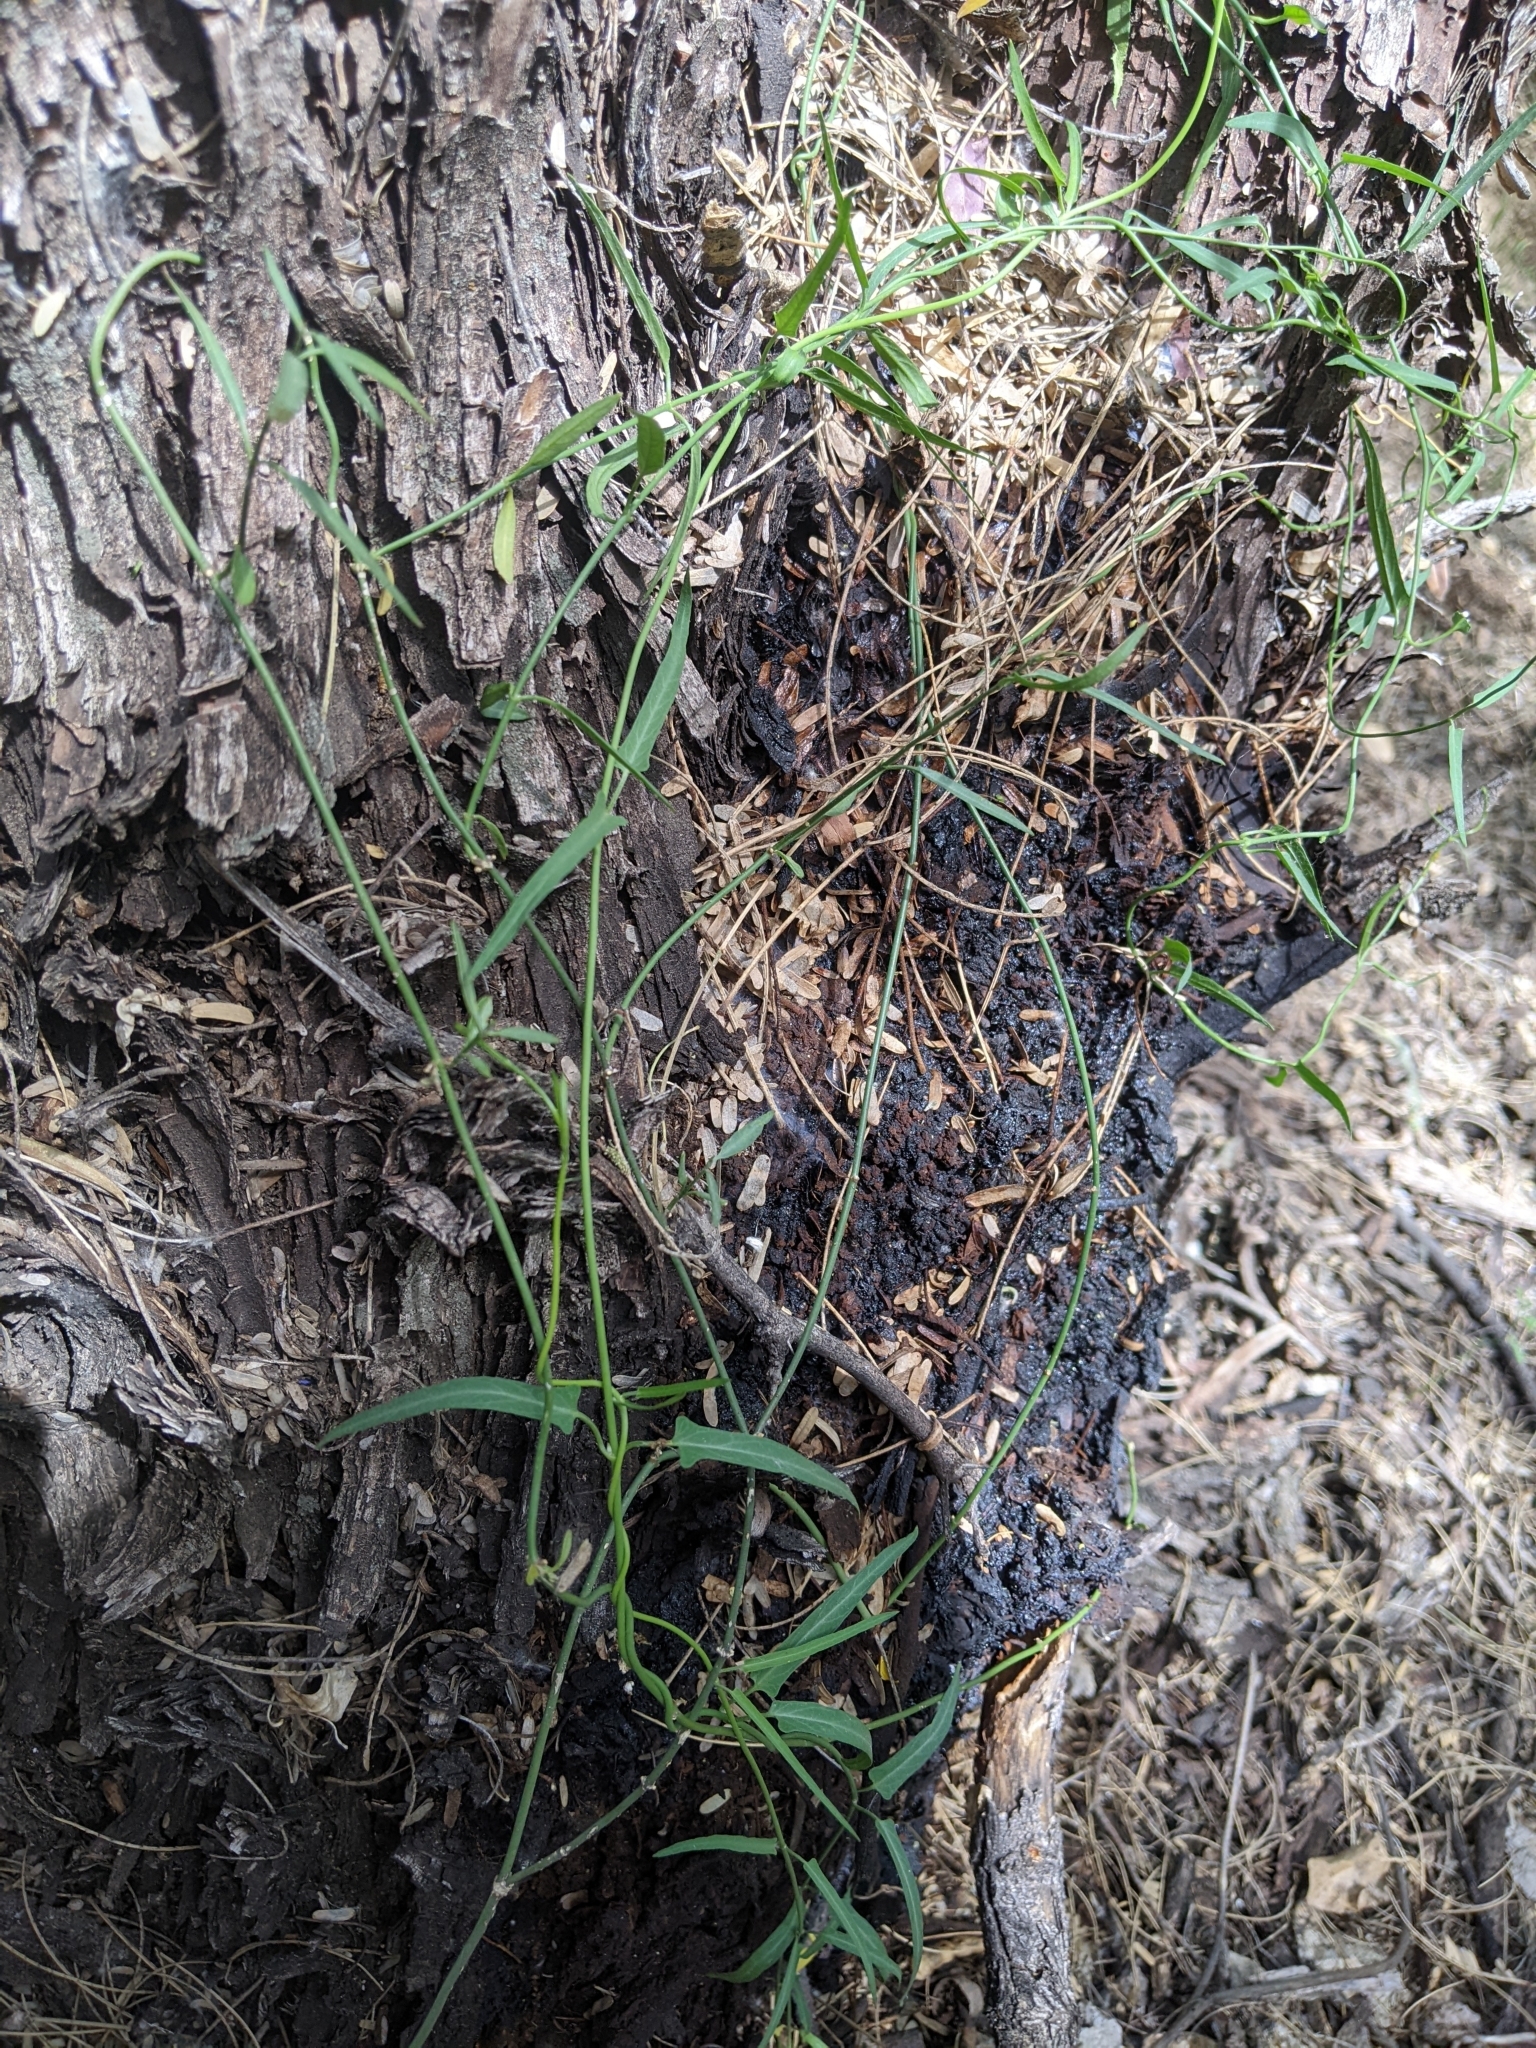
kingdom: Plantae
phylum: Tracheophyta
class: Magnoliopsida
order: Gentianales
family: Apocynaceae
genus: Funastrum
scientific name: Funastrum heterophyllum
